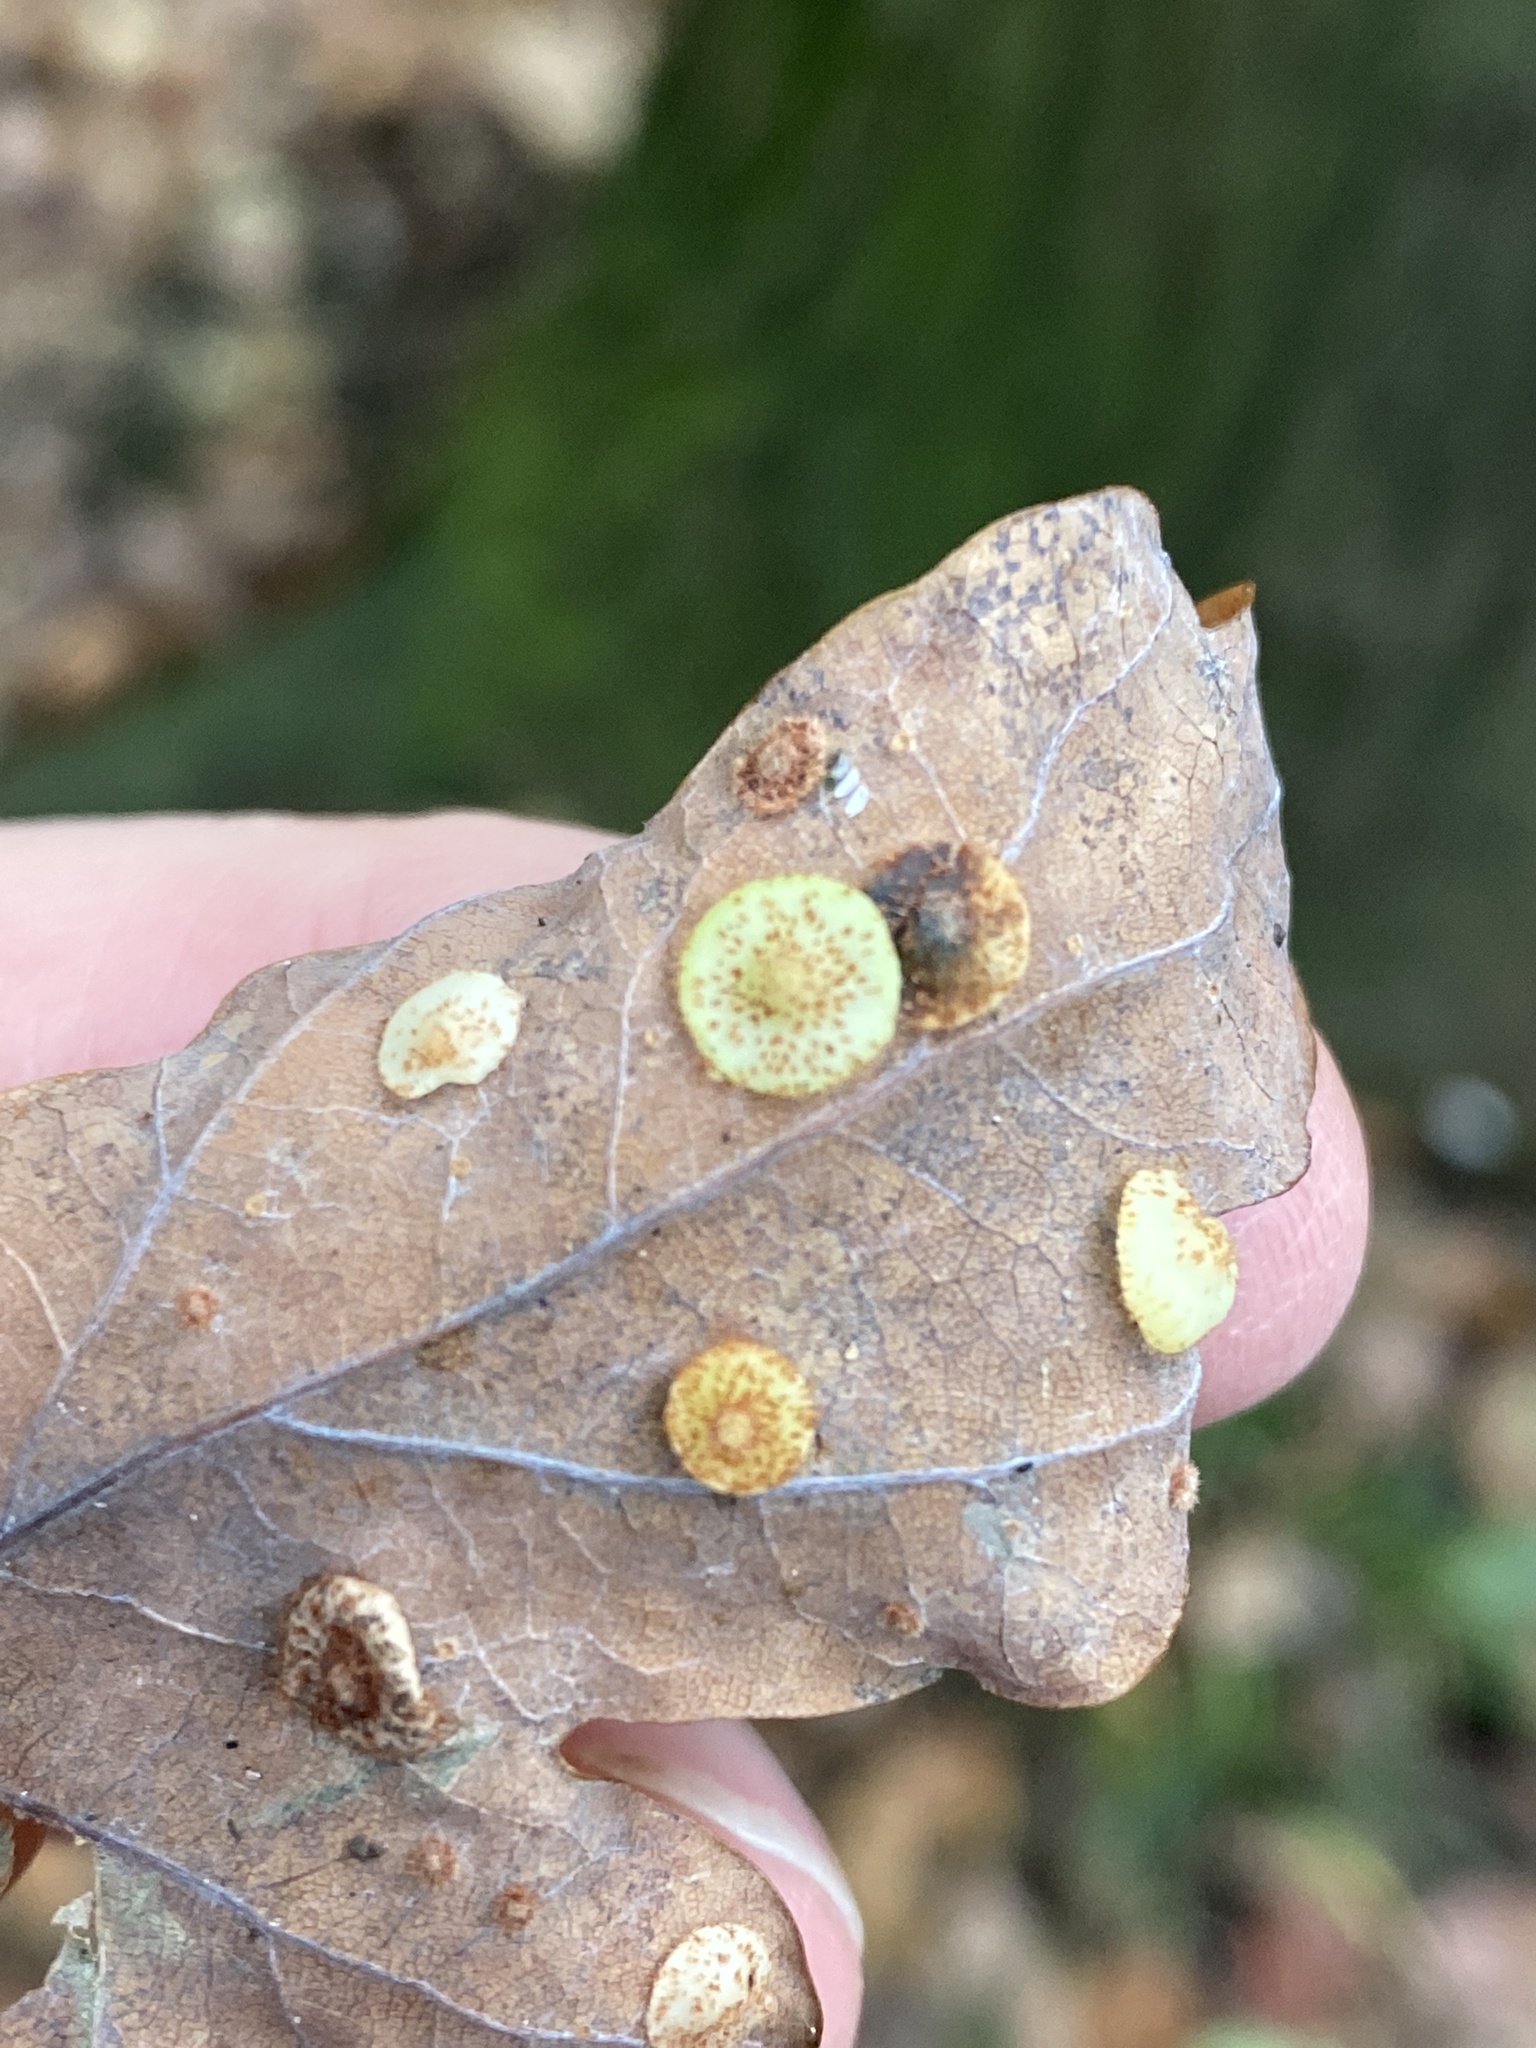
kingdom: Animalia
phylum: Arthropoda
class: Insecta
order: Hymenoptera
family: Cynipidae
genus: Neuroterus
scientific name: Neuroterus quercusbaccarum
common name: Common spangle gall
